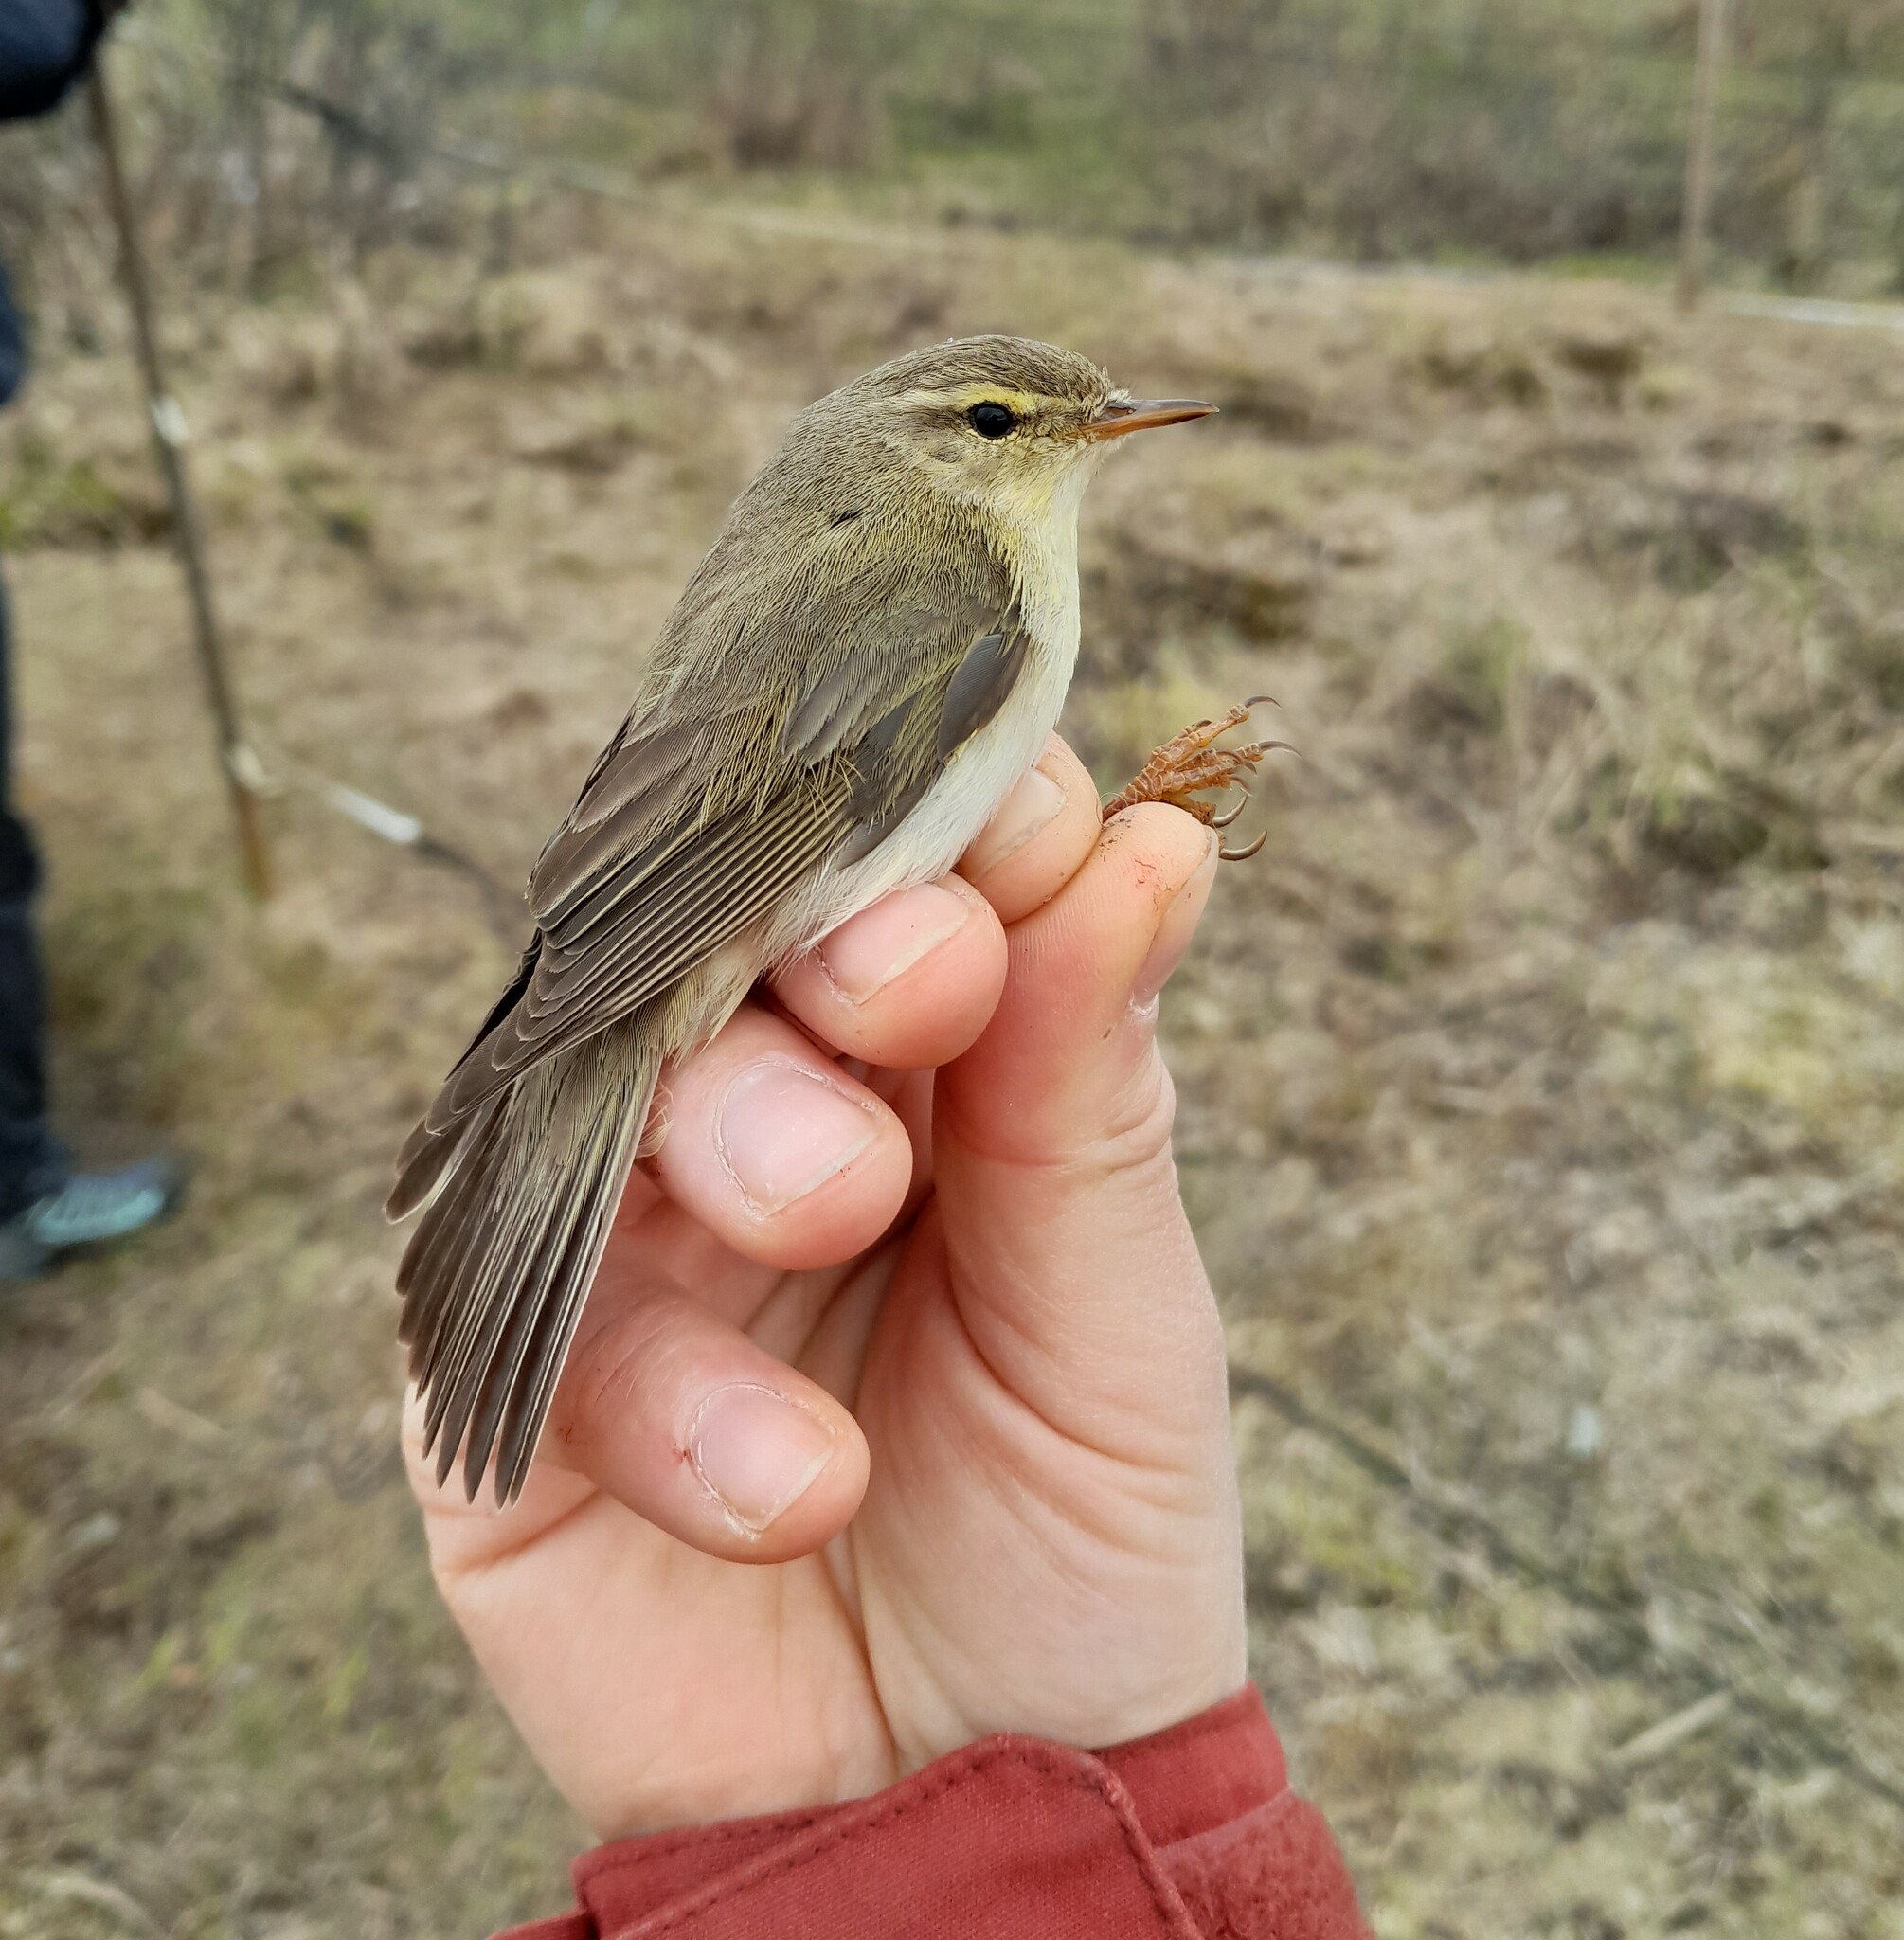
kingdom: Animalia
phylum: Chordata
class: Aves
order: Passeriformes
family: Phylloscopidae
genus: Phylloscopus
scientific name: Phylloscopus trochilus
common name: Willow warbler
